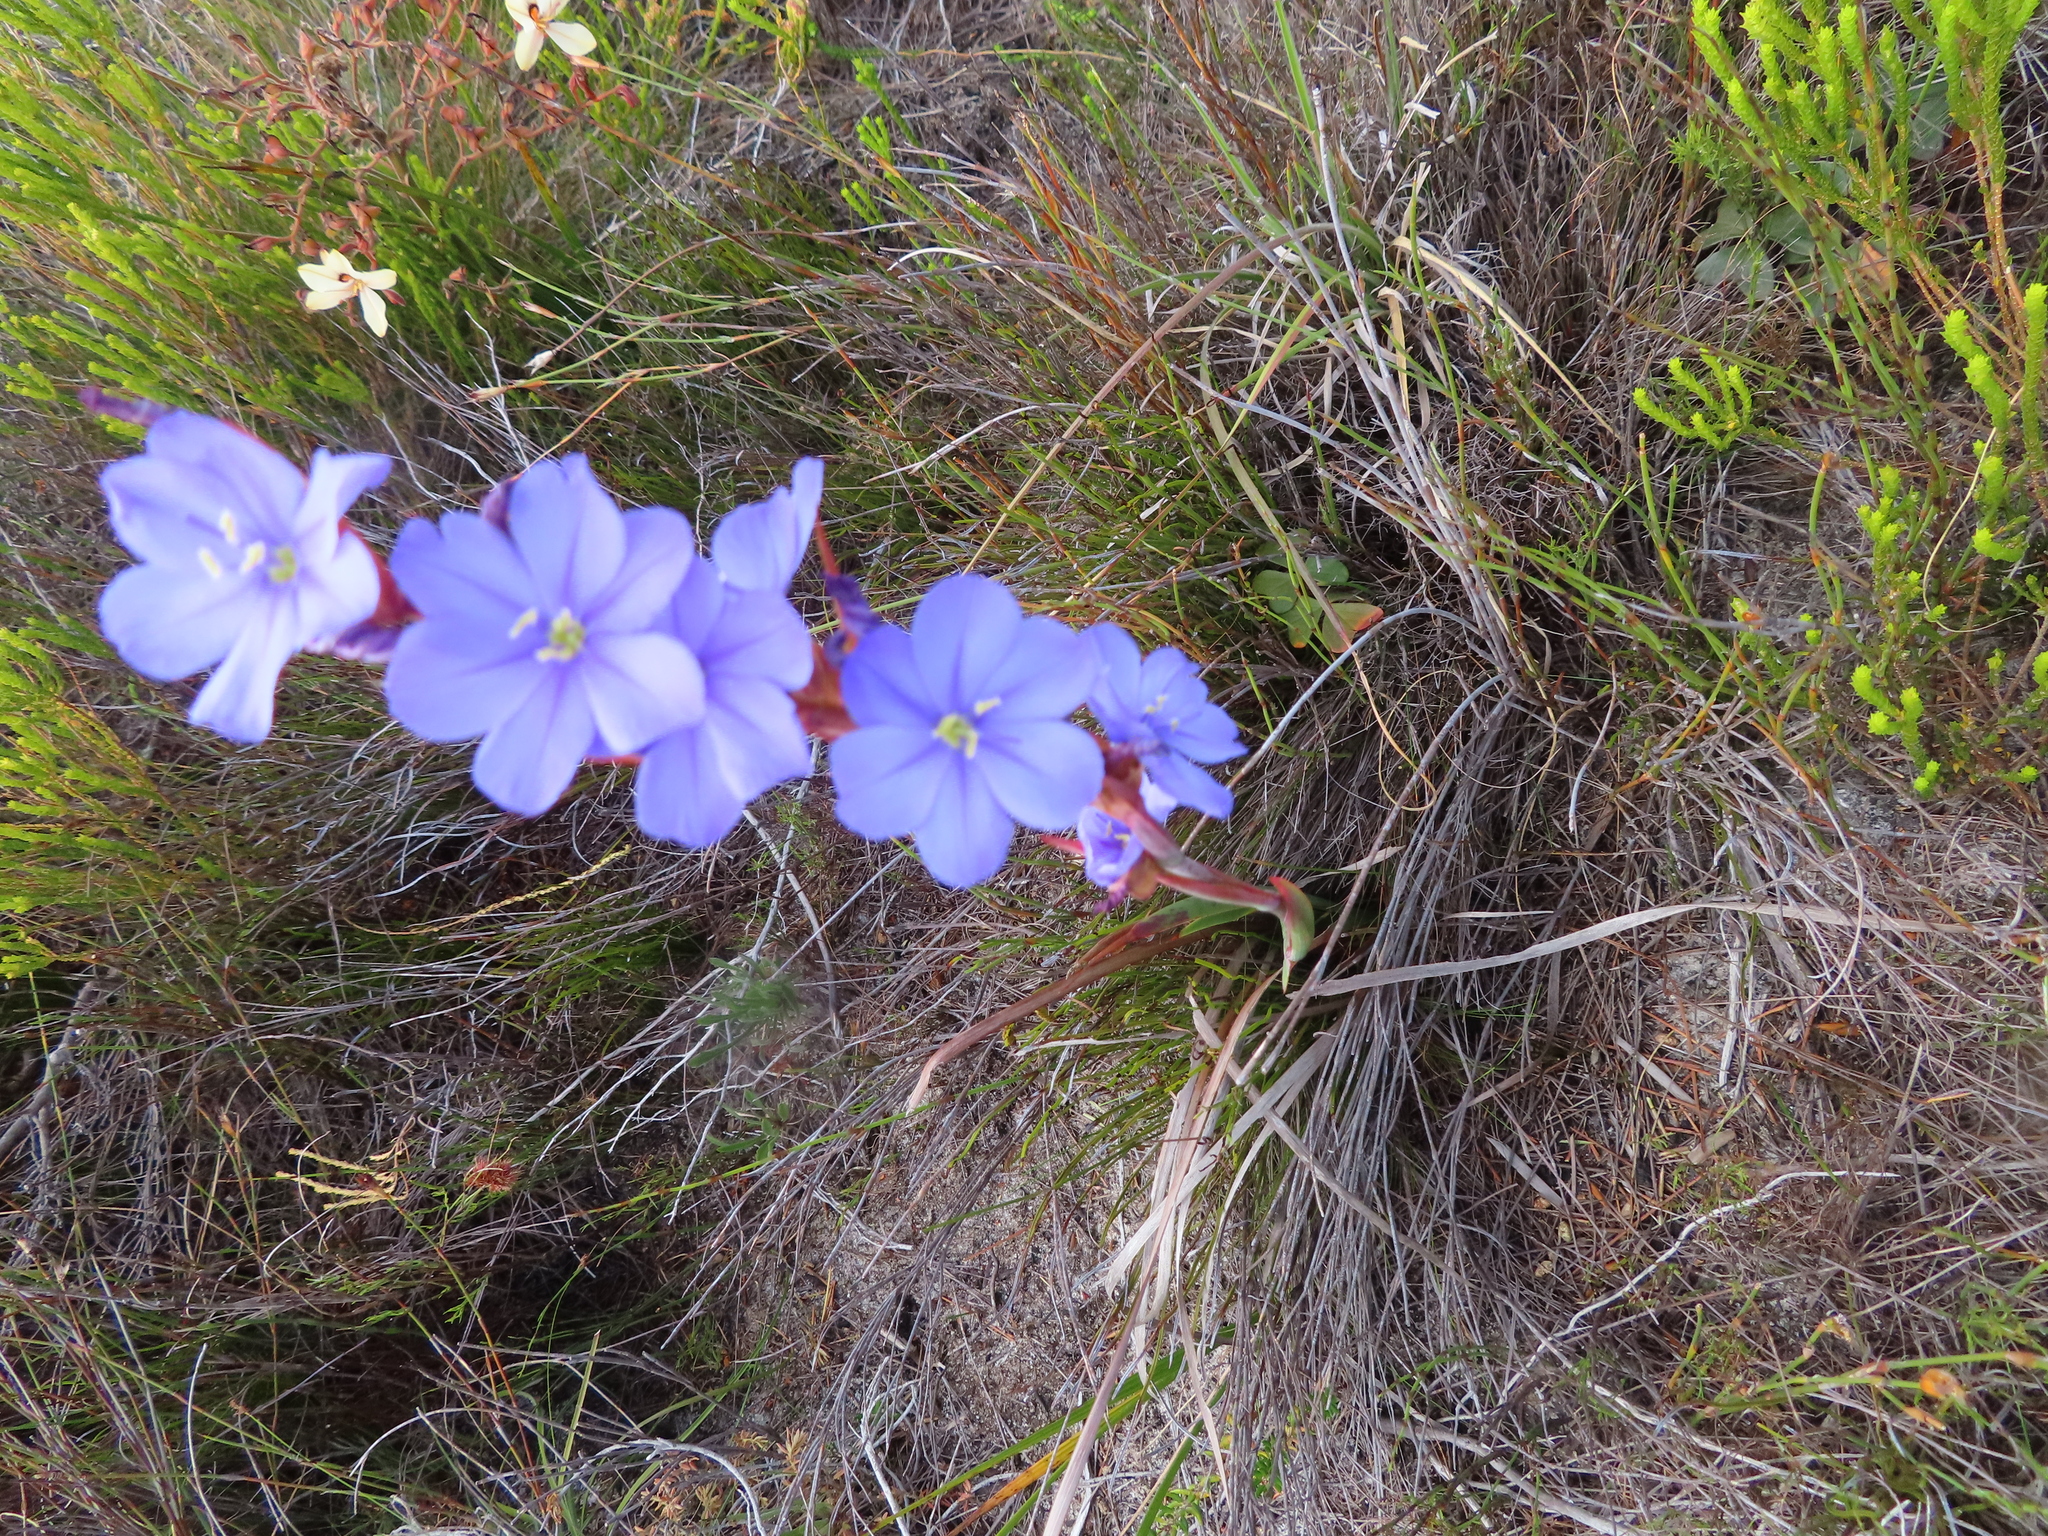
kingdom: Plantae
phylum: Tracheophyta
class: Liliopsida
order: Asparagales
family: Iridaceae
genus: Aristea
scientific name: Aristea spiralis
